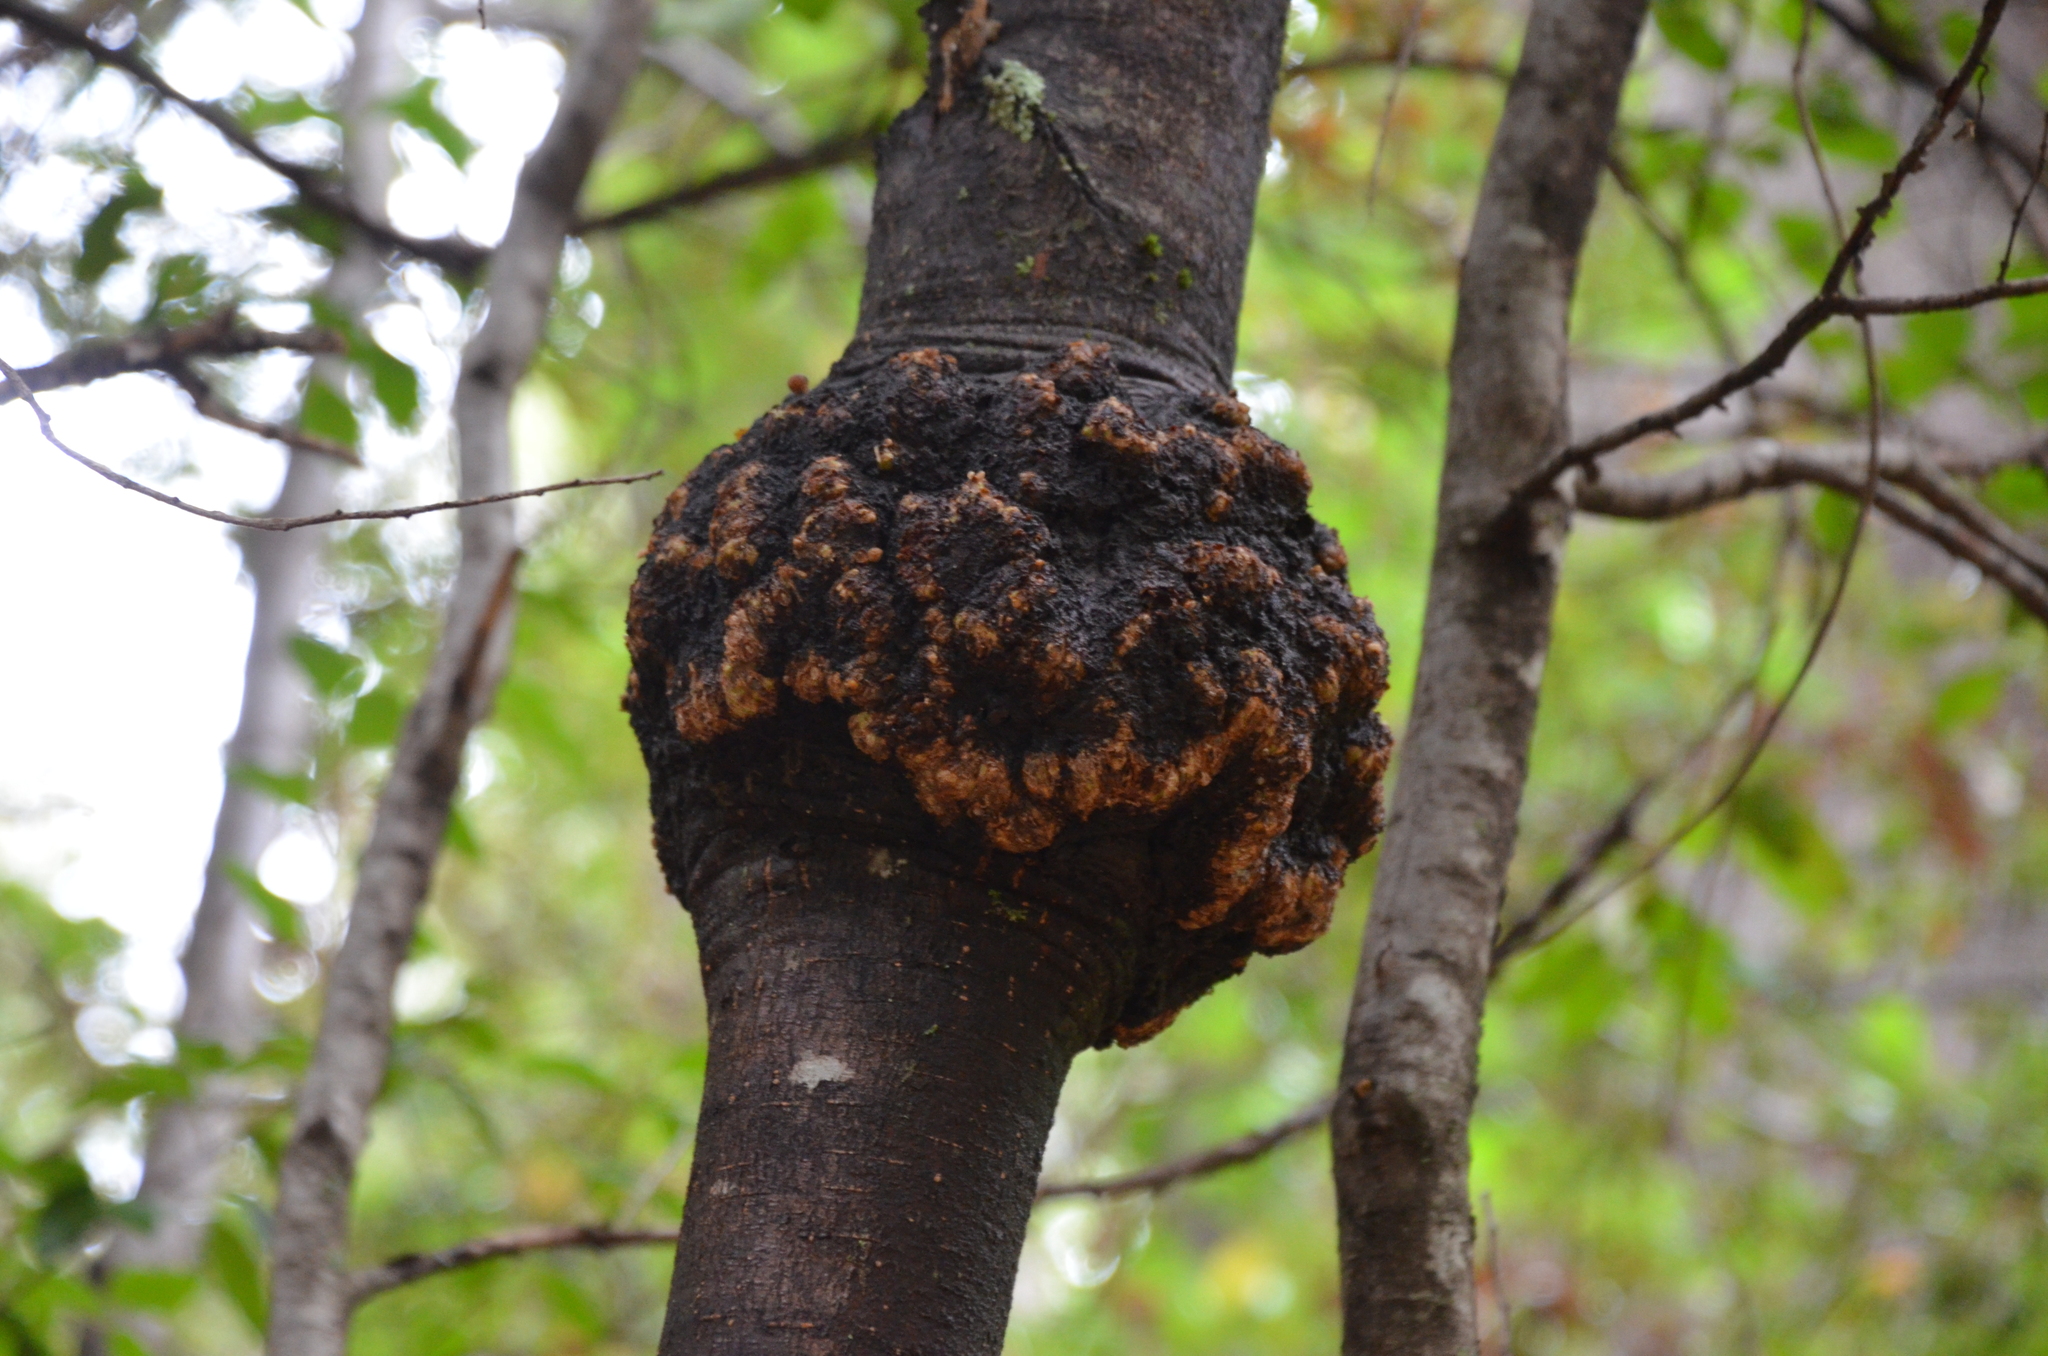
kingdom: Fungi
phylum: Ascomycota
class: Leotiomycetes
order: Cyttariales
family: Cyttariaceae
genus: Cyttaria
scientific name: Cyttaria hariotii
